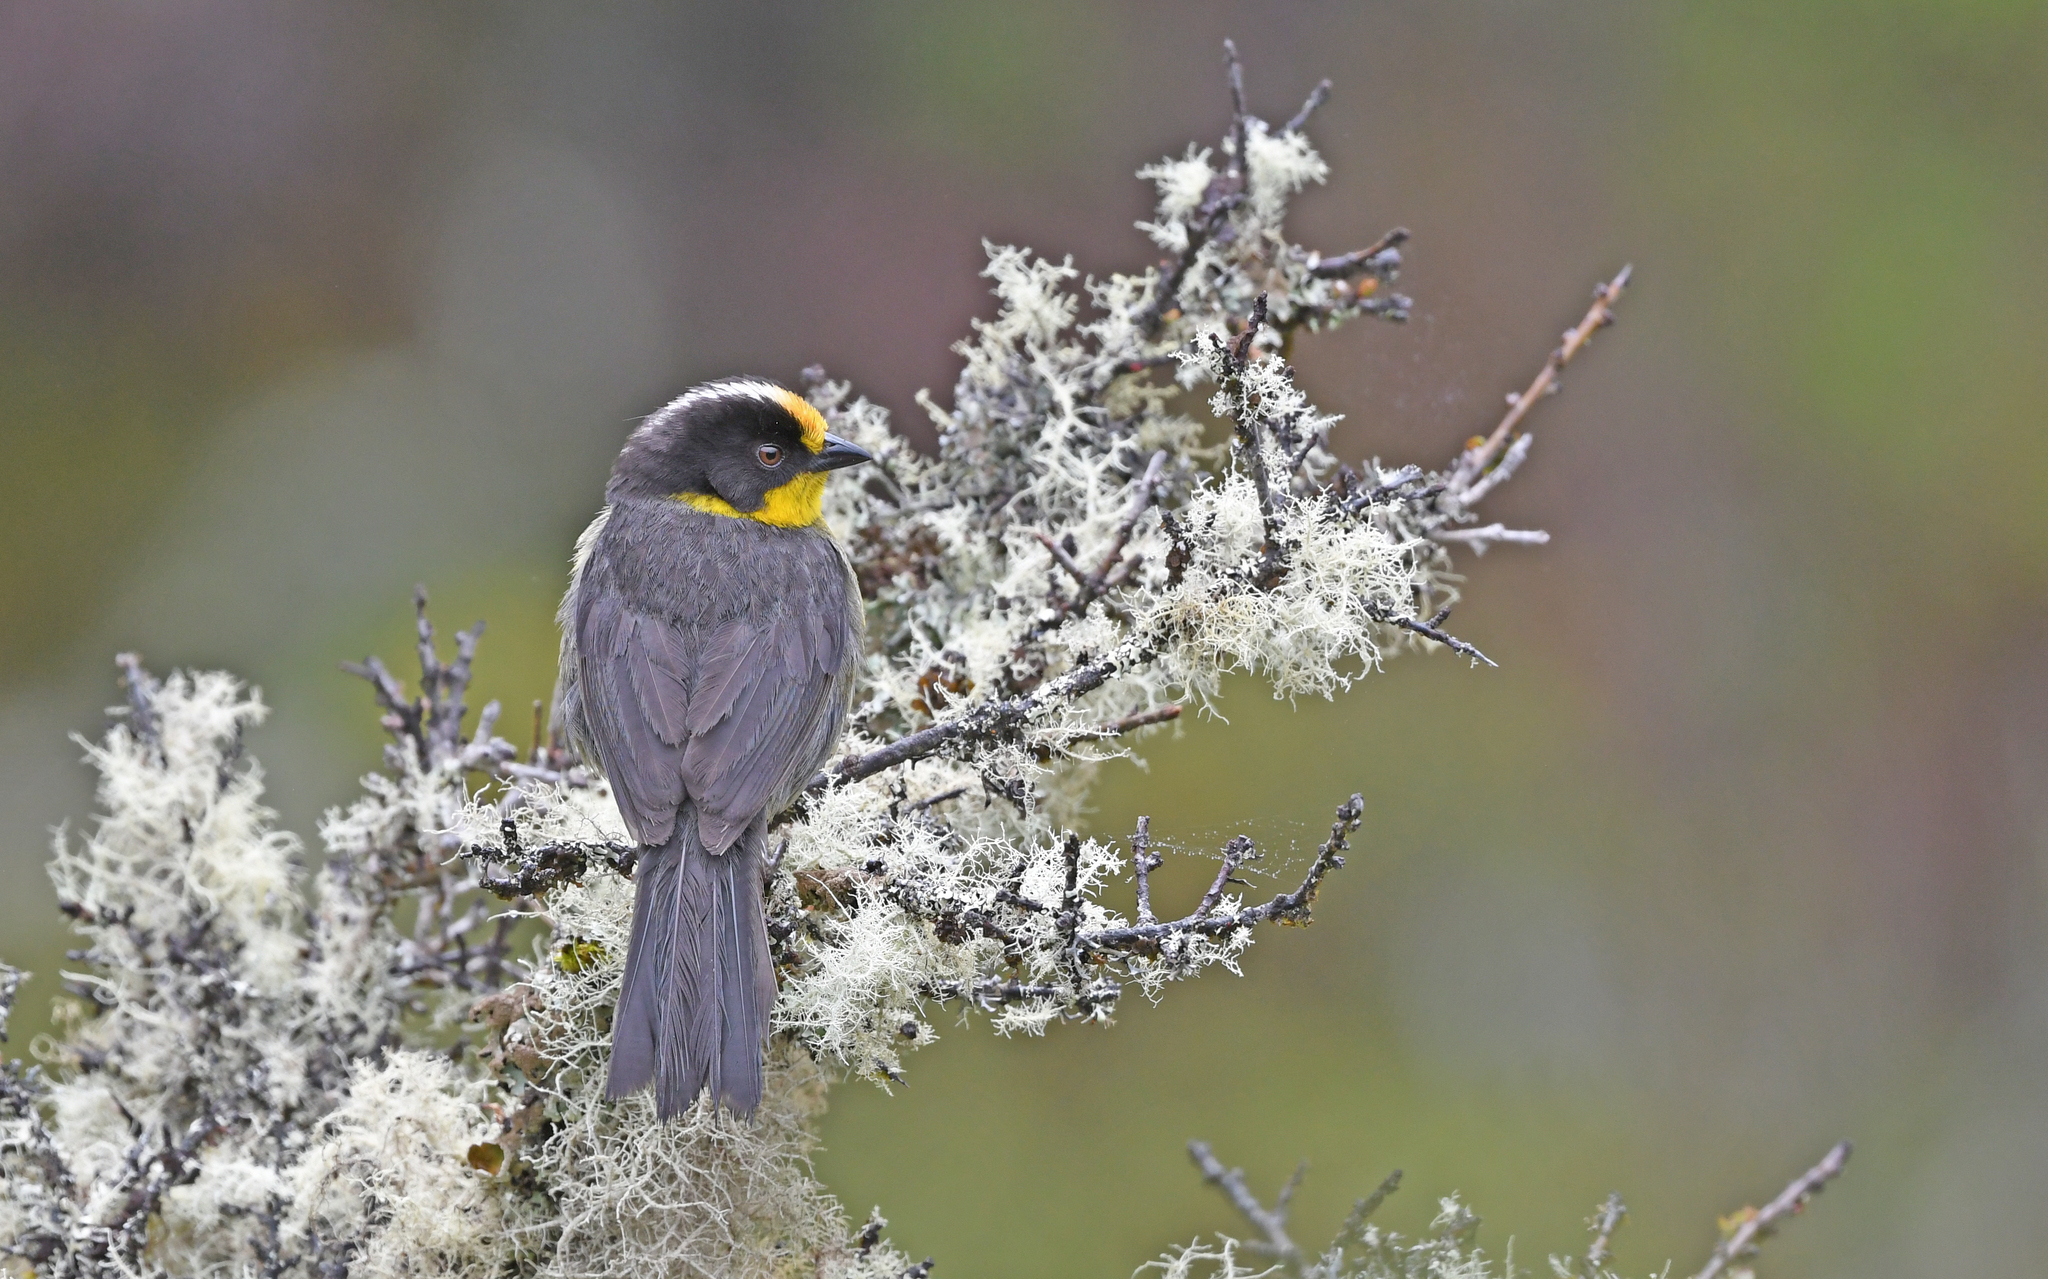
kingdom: Animalia
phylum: Chordata
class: Aves
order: Passeriformes
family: Passerellidae
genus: Atlapetes
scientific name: Atlapetes pallidinucha
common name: Pale-naped brushfinch
